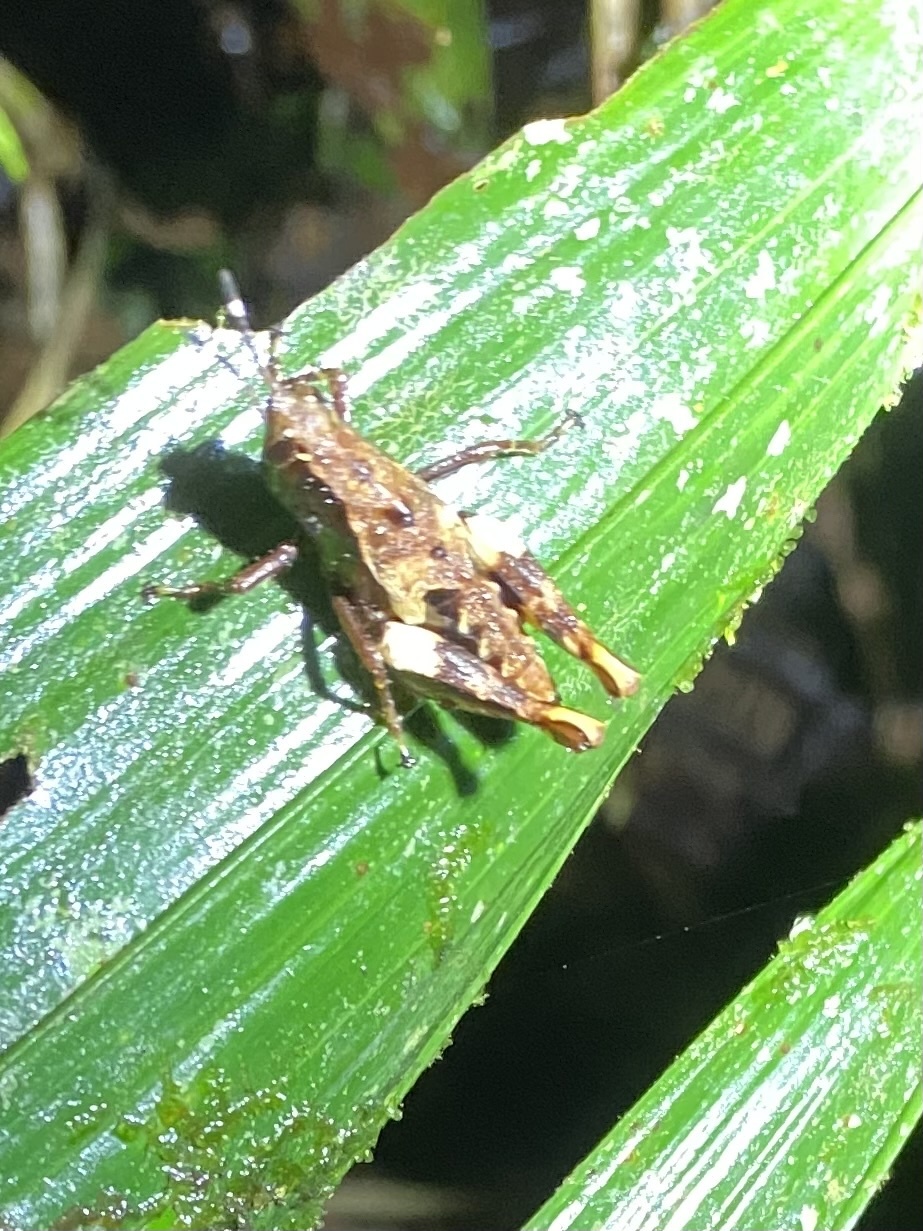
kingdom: Animalia
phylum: Arthropoda
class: Insecta
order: Orthoptera
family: Acrididae
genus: Microtylopteryx
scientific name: Microtylopteryx fusiformis
